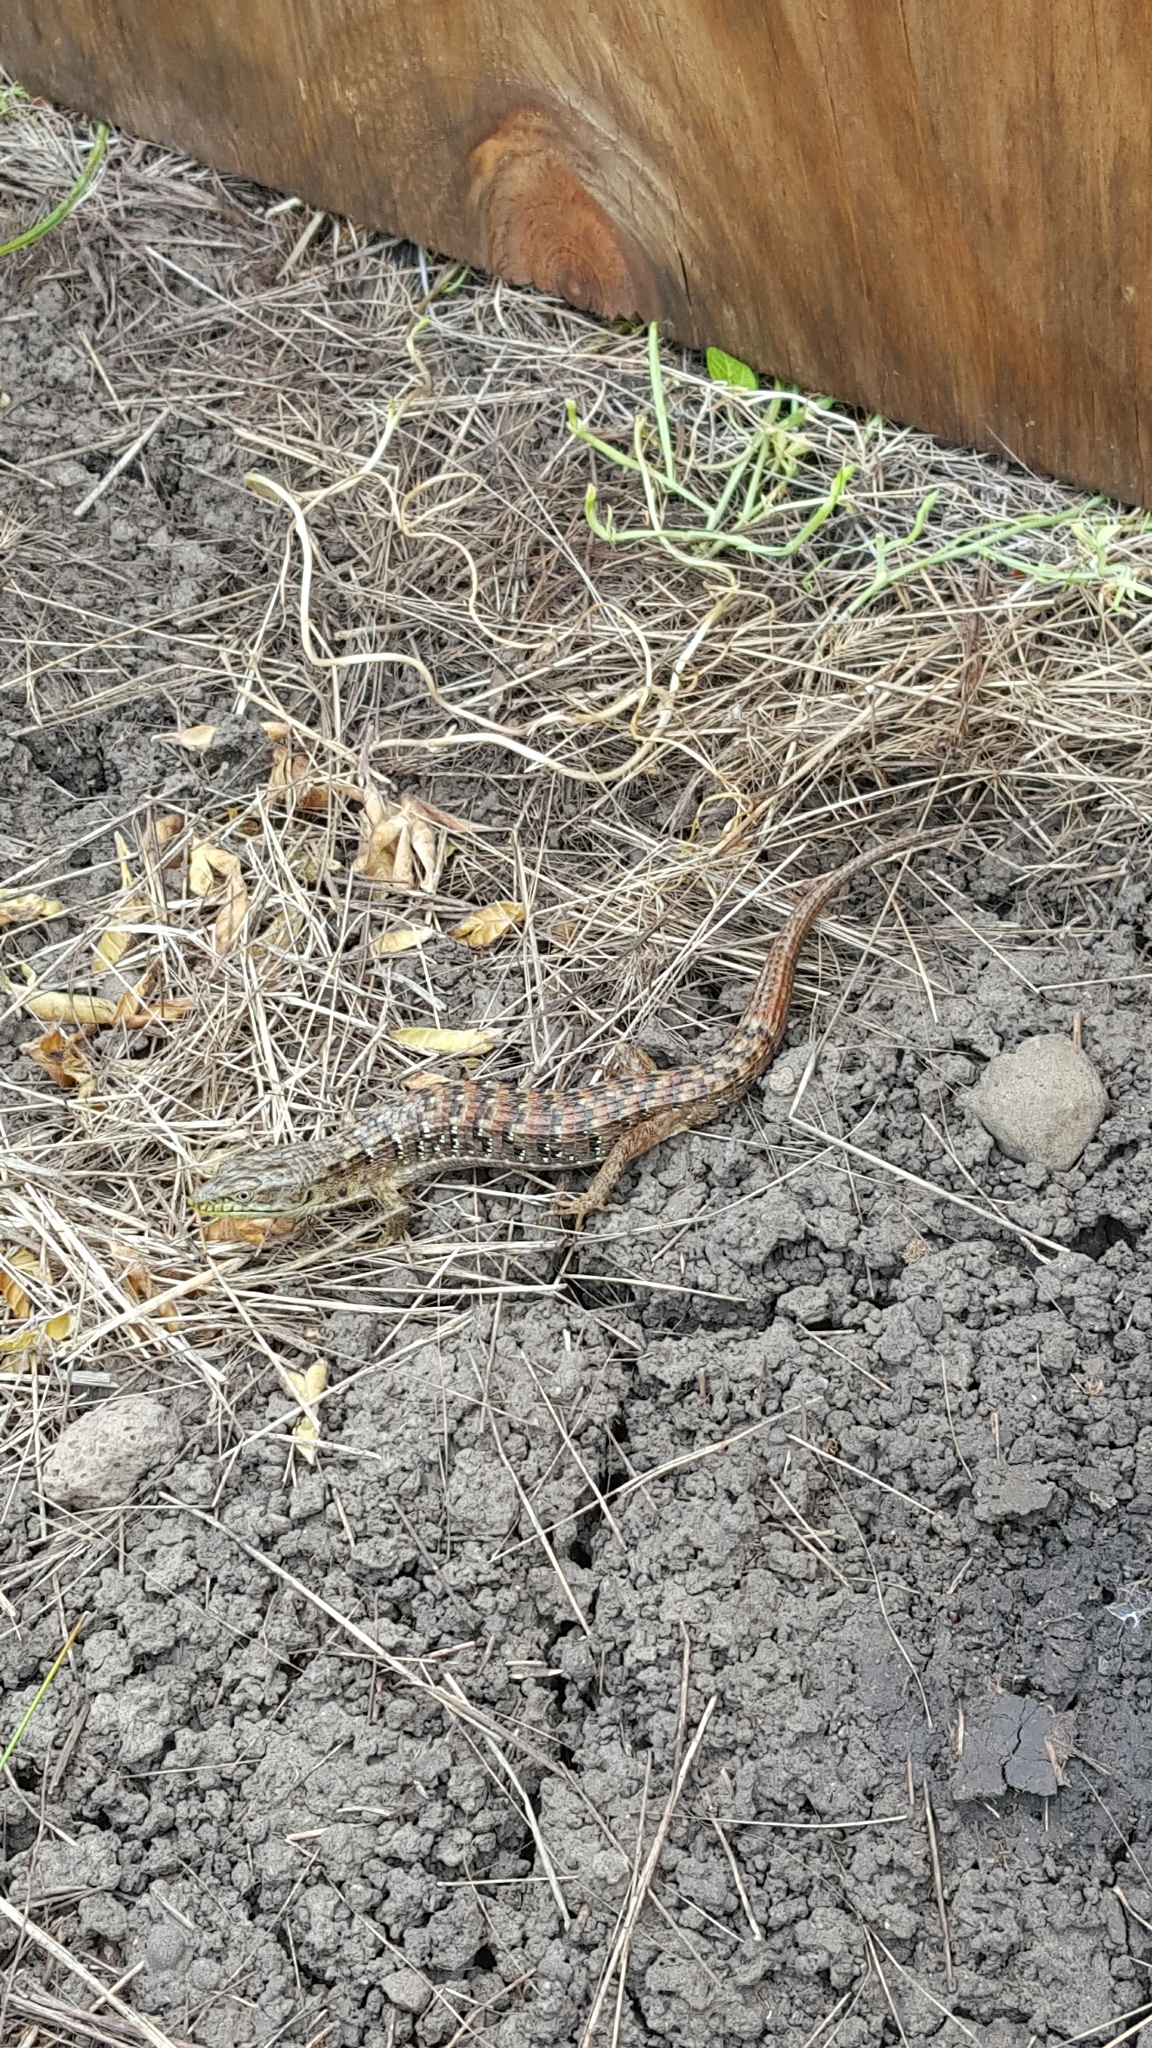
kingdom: Animalia
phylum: Chordata
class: Squamata
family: Anguidae
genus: Elgaria
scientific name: Elgaria multicarinata
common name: Southern alligator lizard
